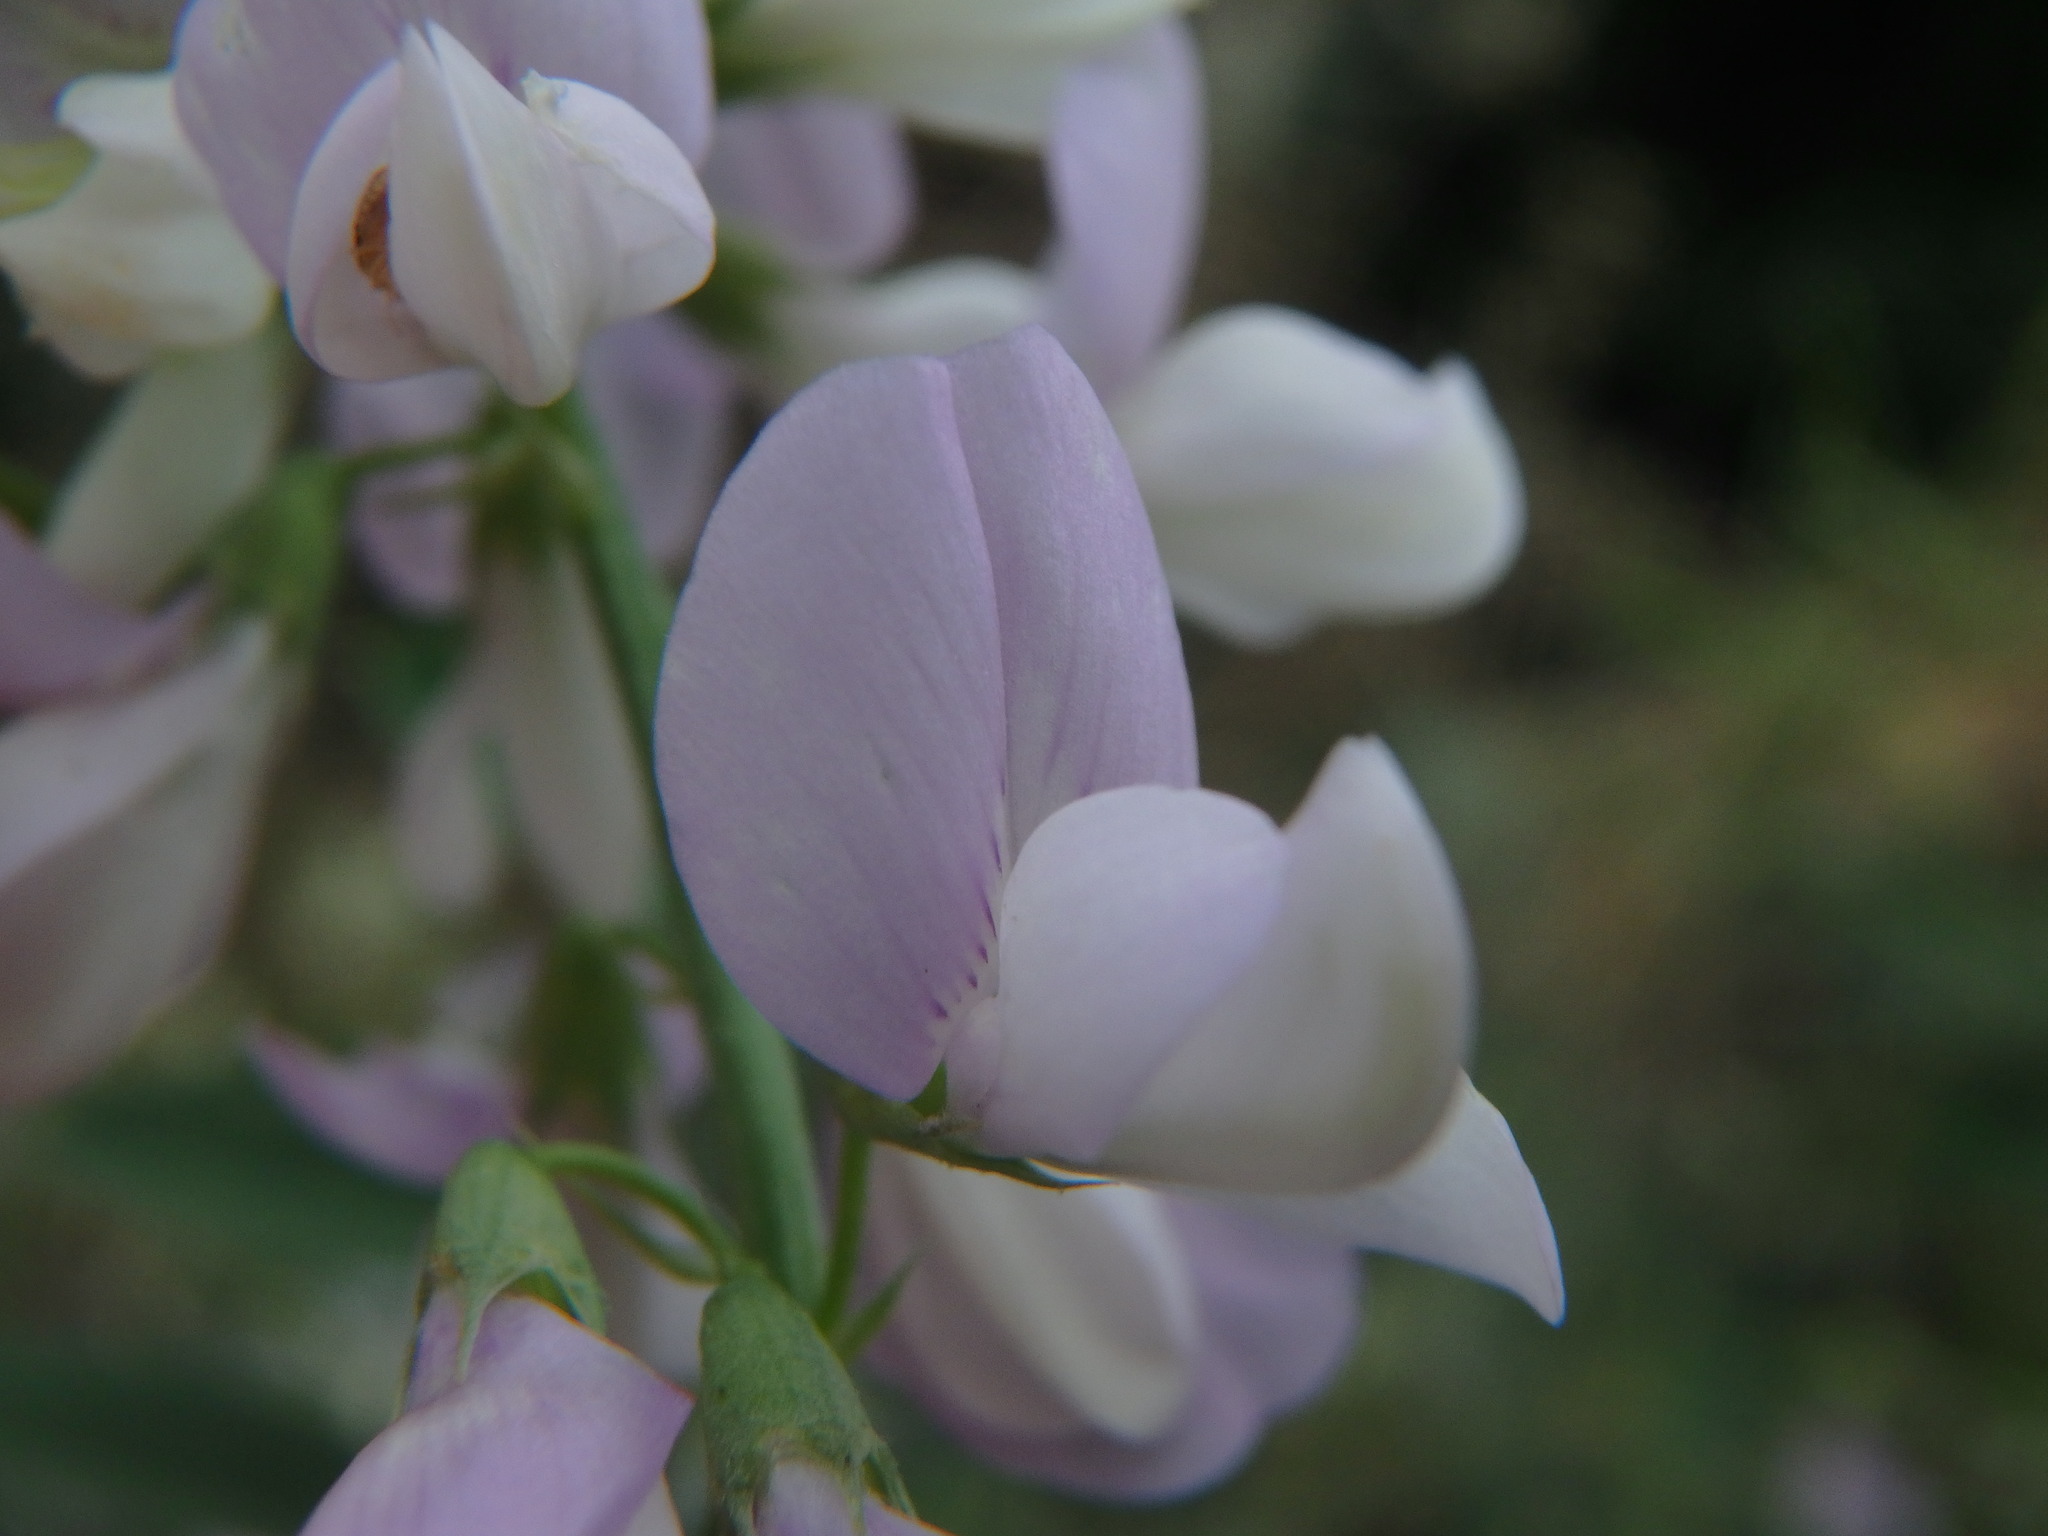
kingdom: Plantae
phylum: Tracheophyta
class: Magnoliopsida
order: Fabales
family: Fabaceae
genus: Galega
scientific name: Galega officinalis
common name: Goat's-rue
